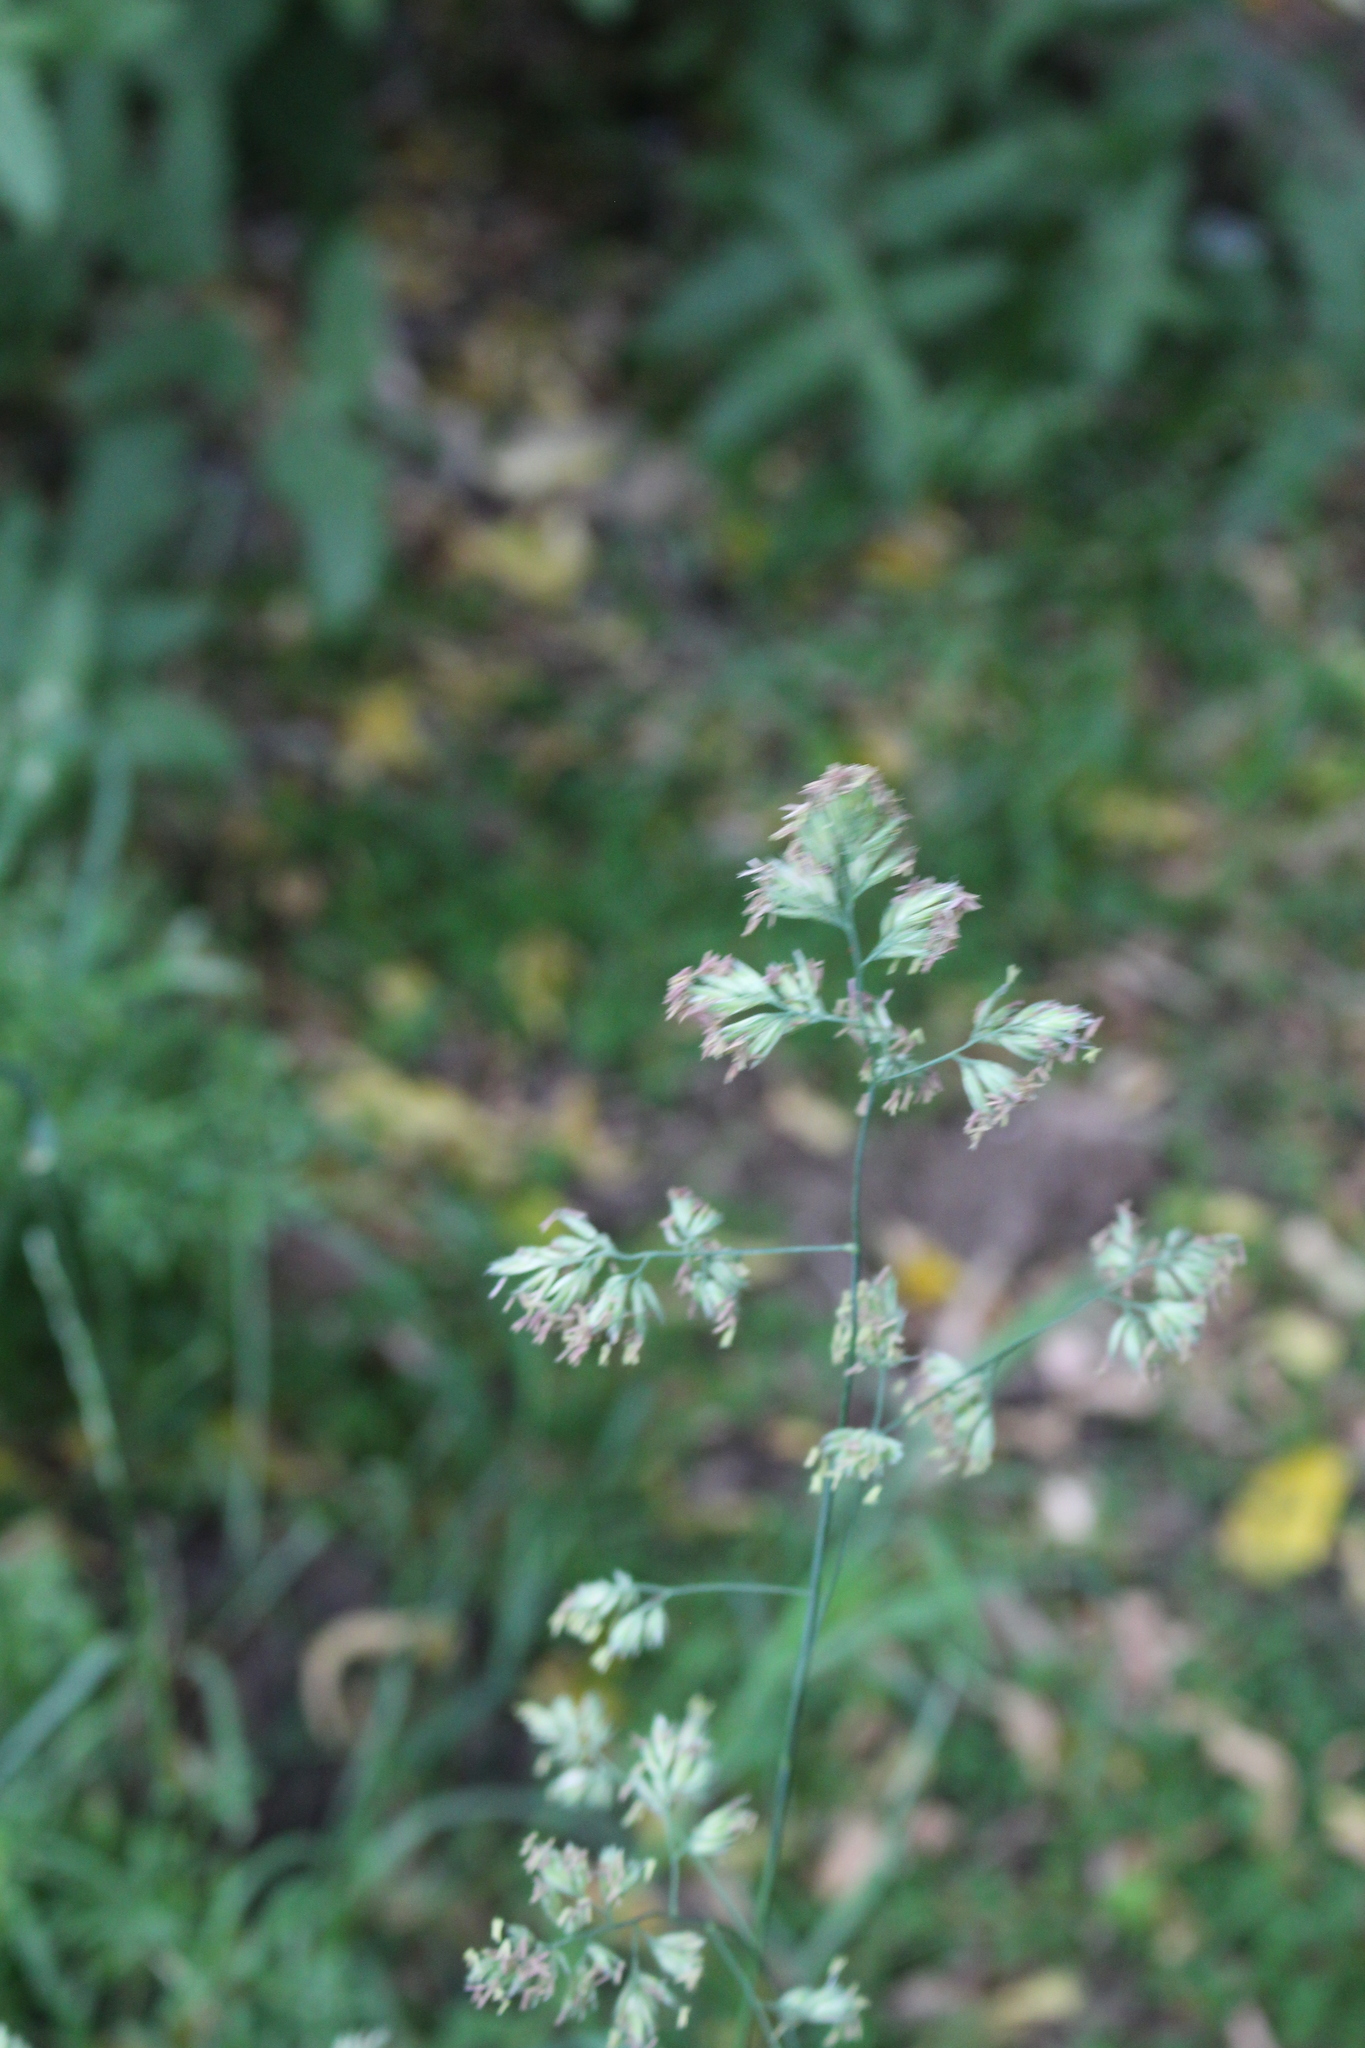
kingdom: Plantae
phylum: Tracheophyta
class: Liliopsida
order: Poales
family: Poaceae
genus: Dactylis
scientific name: Dactylis glomerata
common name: Orchardgrass
